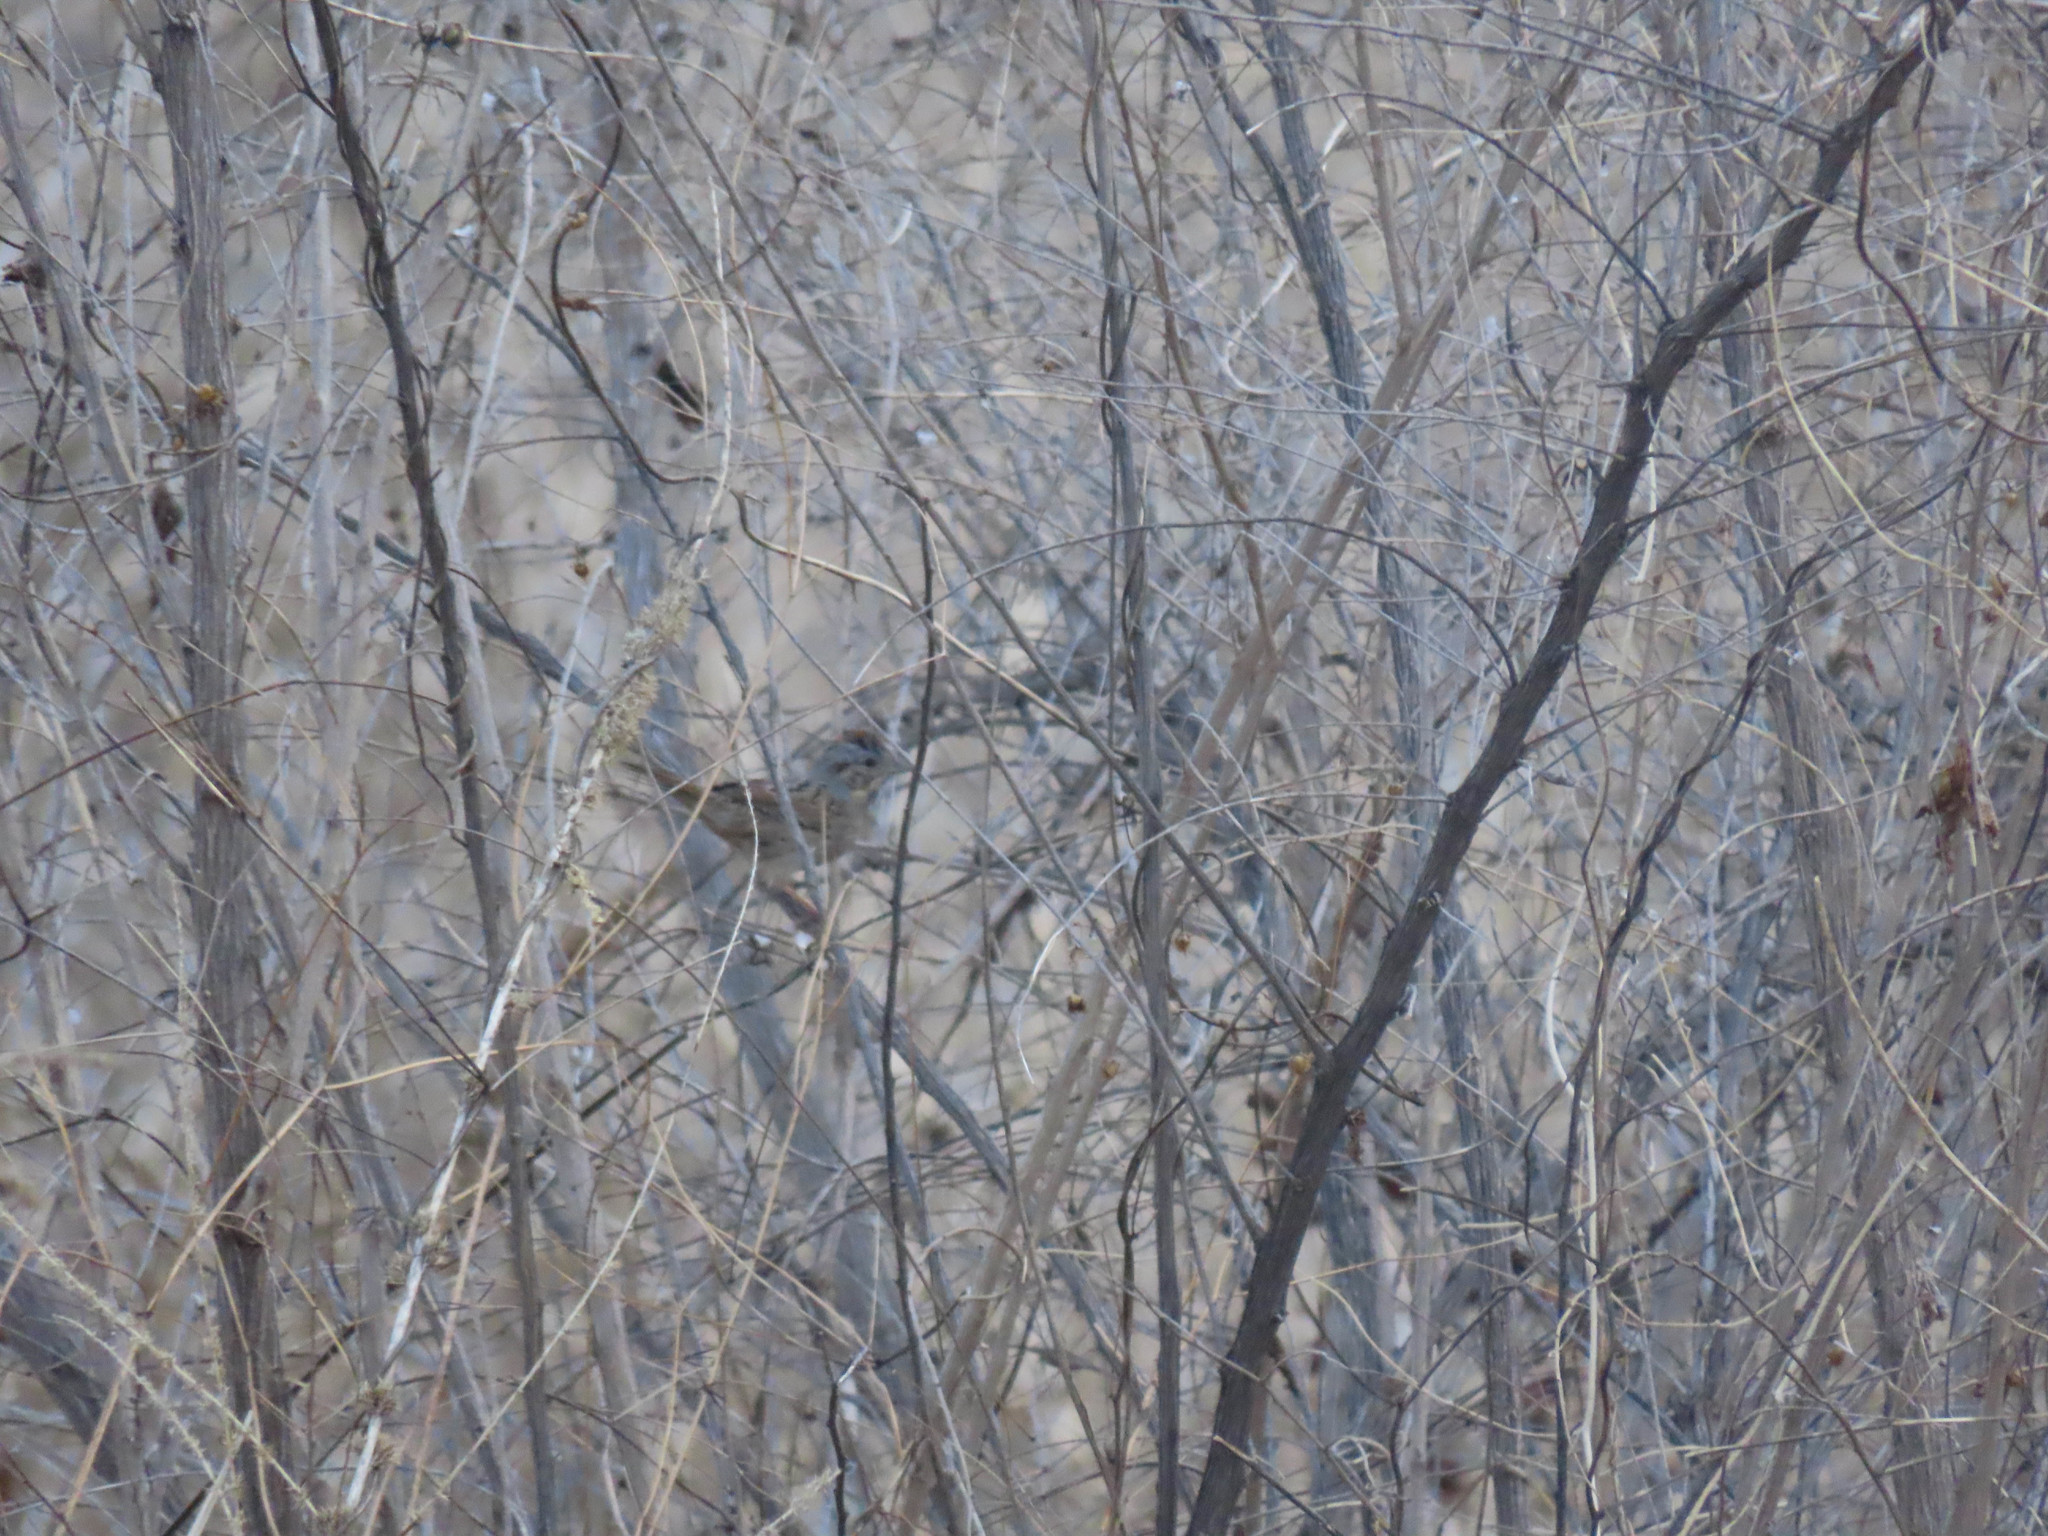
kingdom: Animalia
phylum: Chordata
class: Aves
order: Passeriformes
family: Passerellidae
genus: Melospiza
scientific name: Melospiza lincolnii
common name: Lincoln's sparrow
